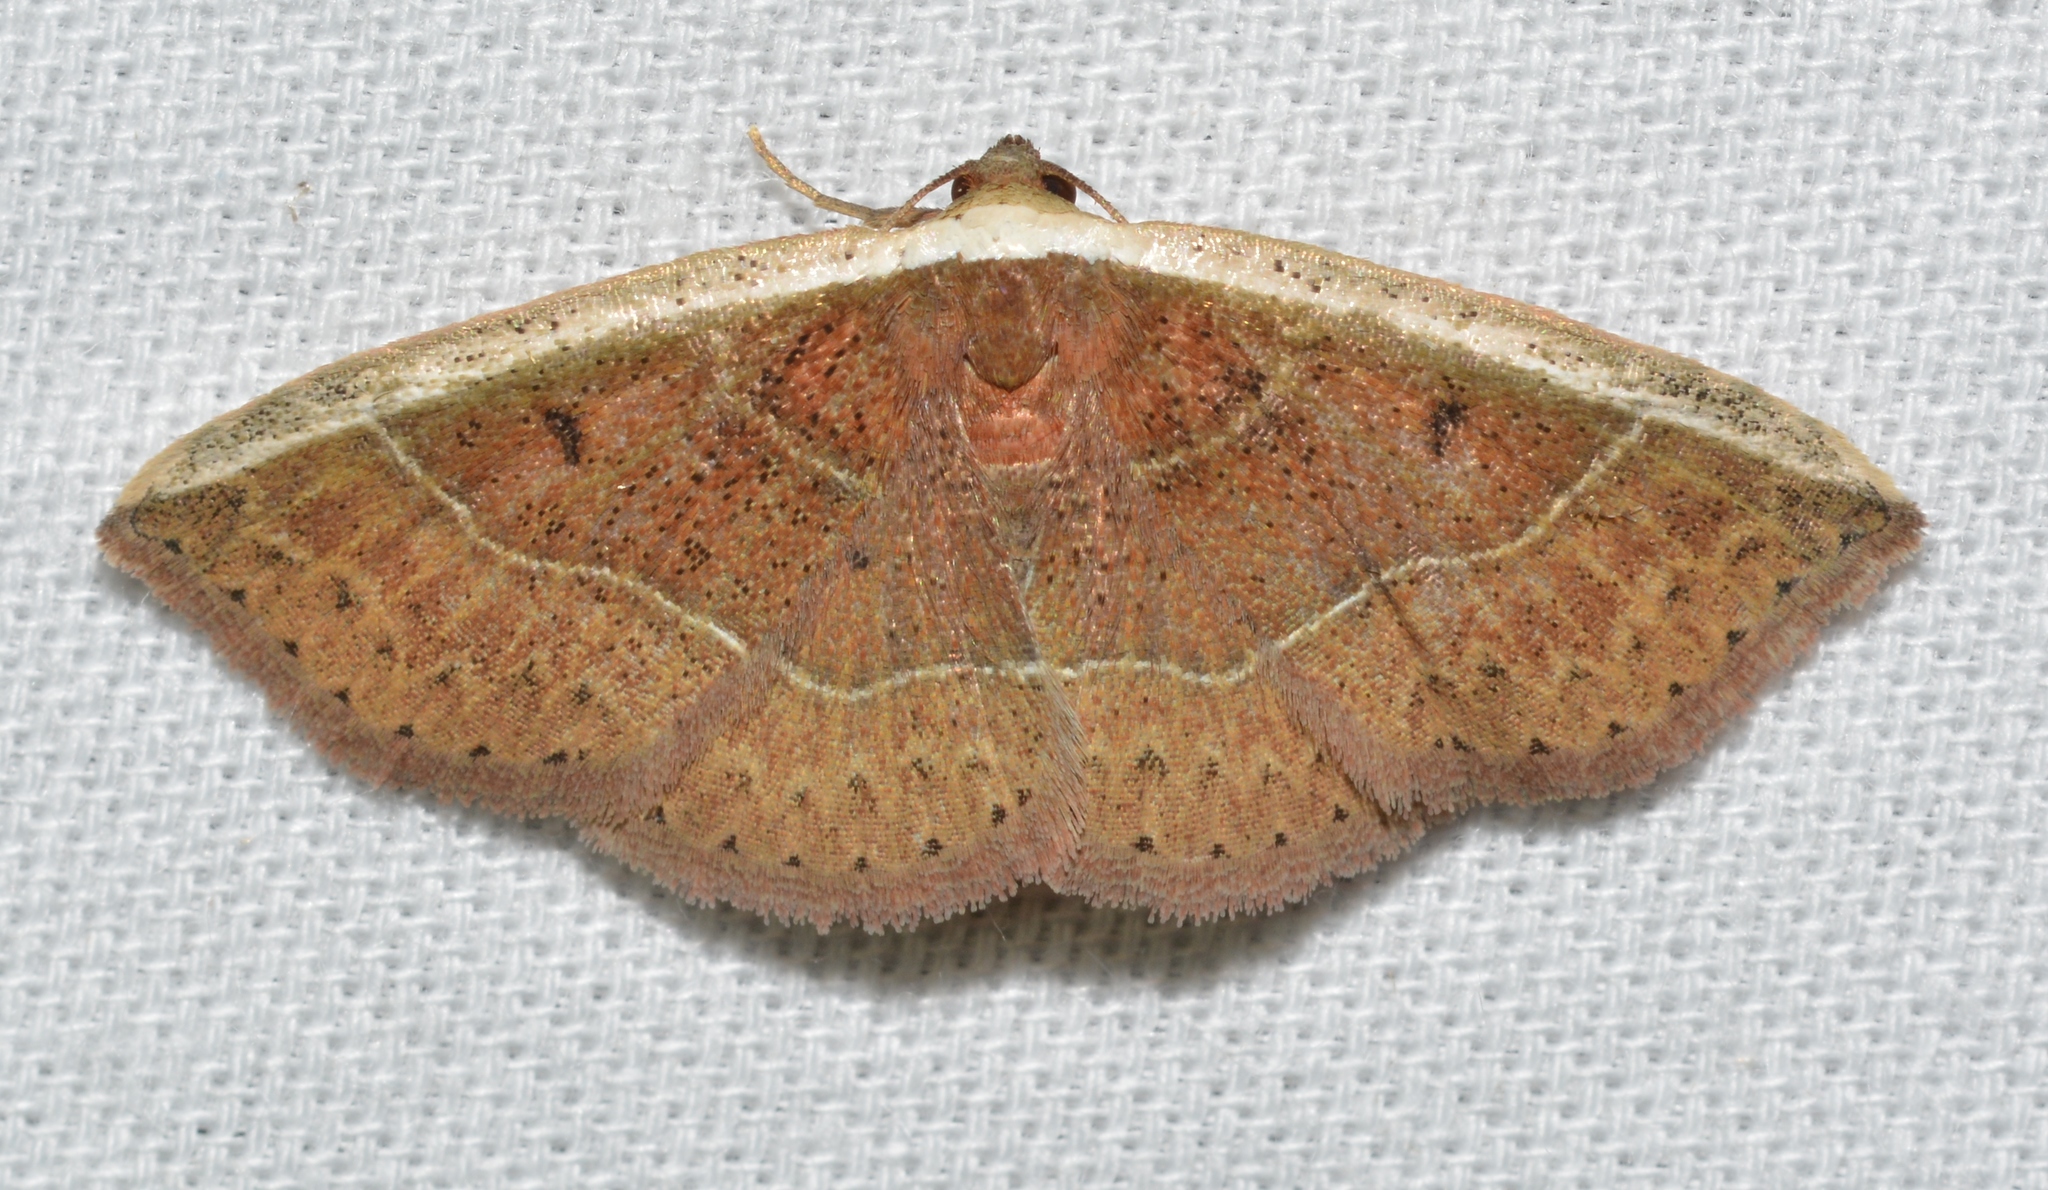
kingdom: Animalia
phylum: Arthropoda
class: Insecta
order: Lepidoptera
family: Noctuidae
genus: Ozarba
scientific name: Ozarba albocostaliata
